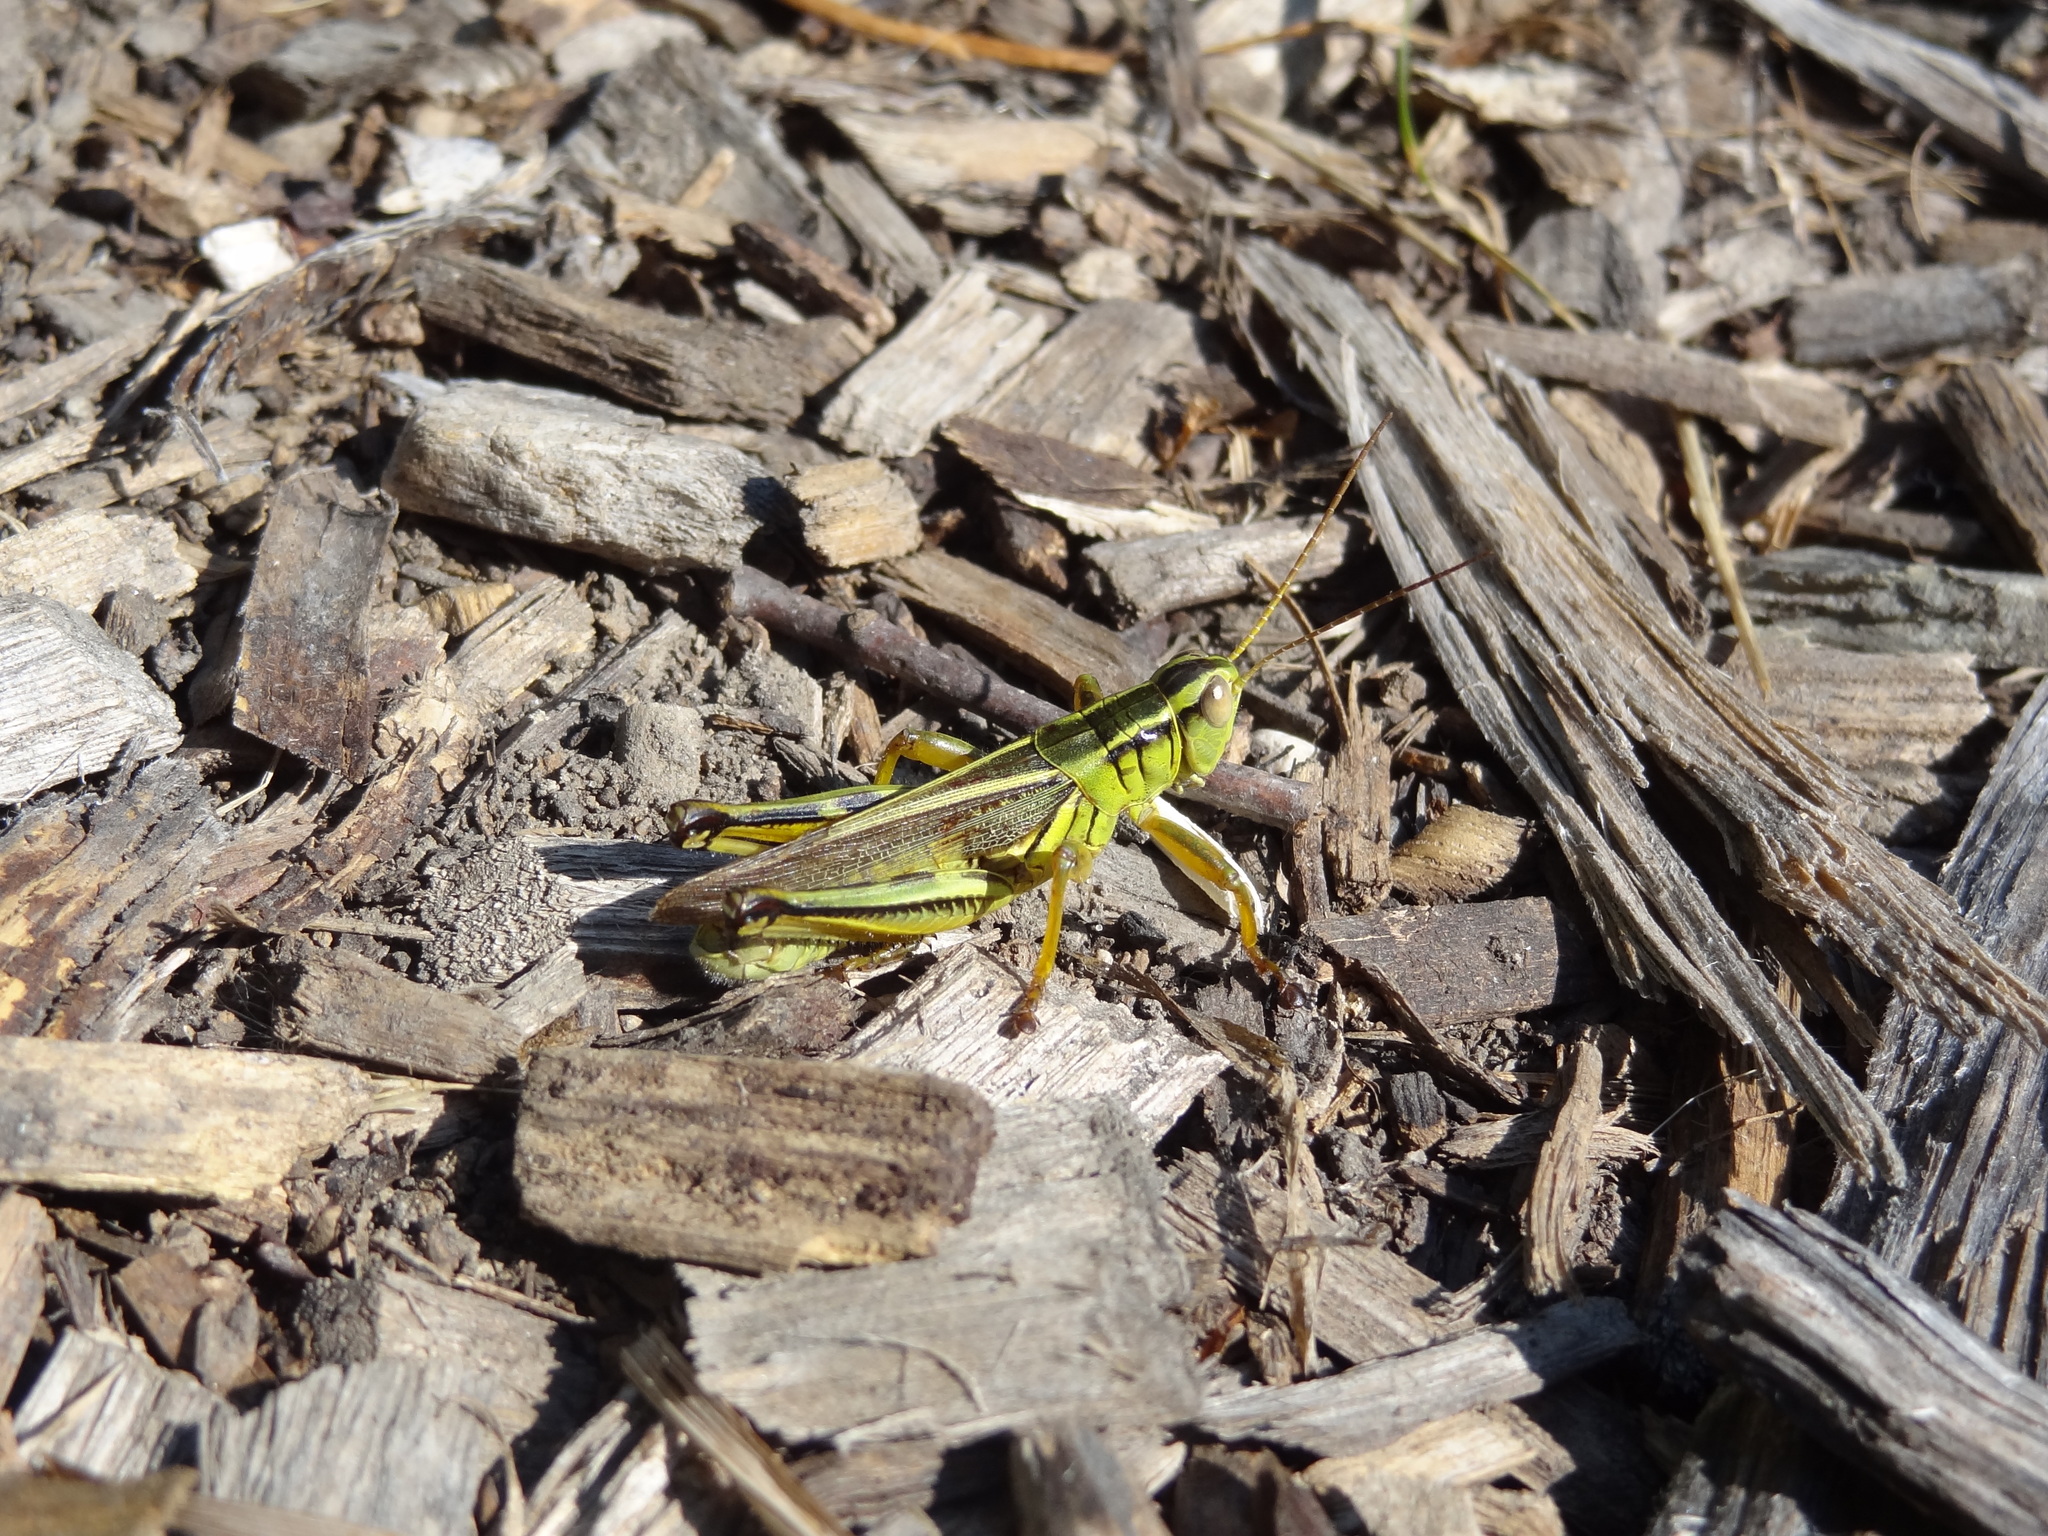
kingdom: Animalia
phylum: Arthropoda
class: Insecta
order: Orthoptera
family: Acrididae
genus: Melanoplus
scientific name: Melanoplus bivittatus
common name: Two-striped grasshopper
